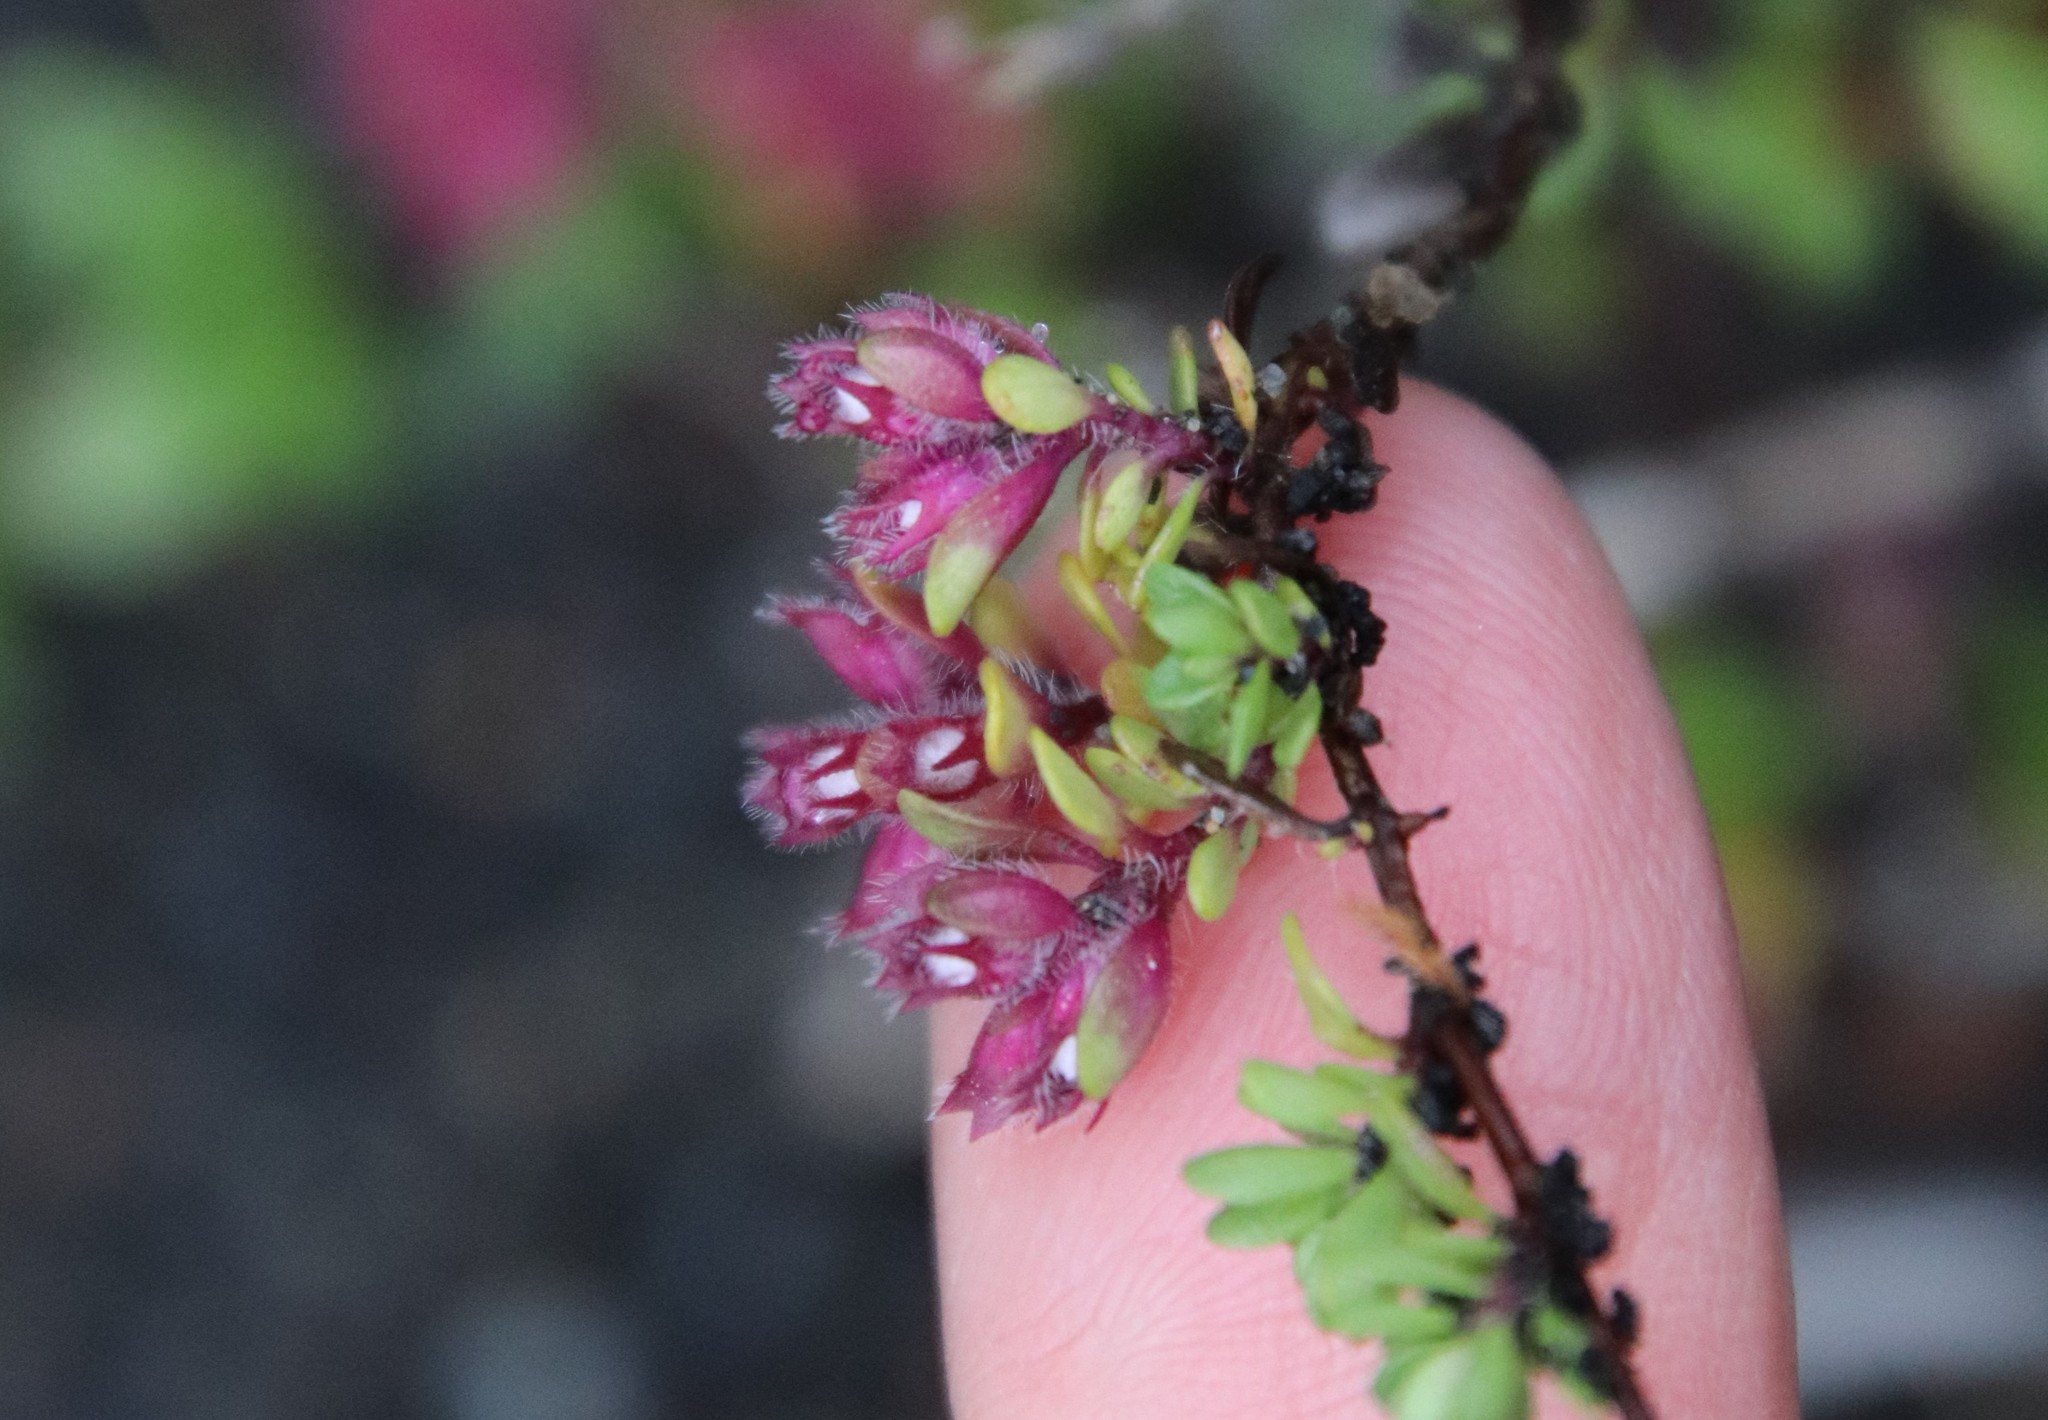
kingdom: Plantae
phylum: Tracheophyta
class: Magnoliopsida
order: Lamiales
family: Lamiaceae
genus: Thymus
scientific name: Thymus praecox
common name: Wild thyme
